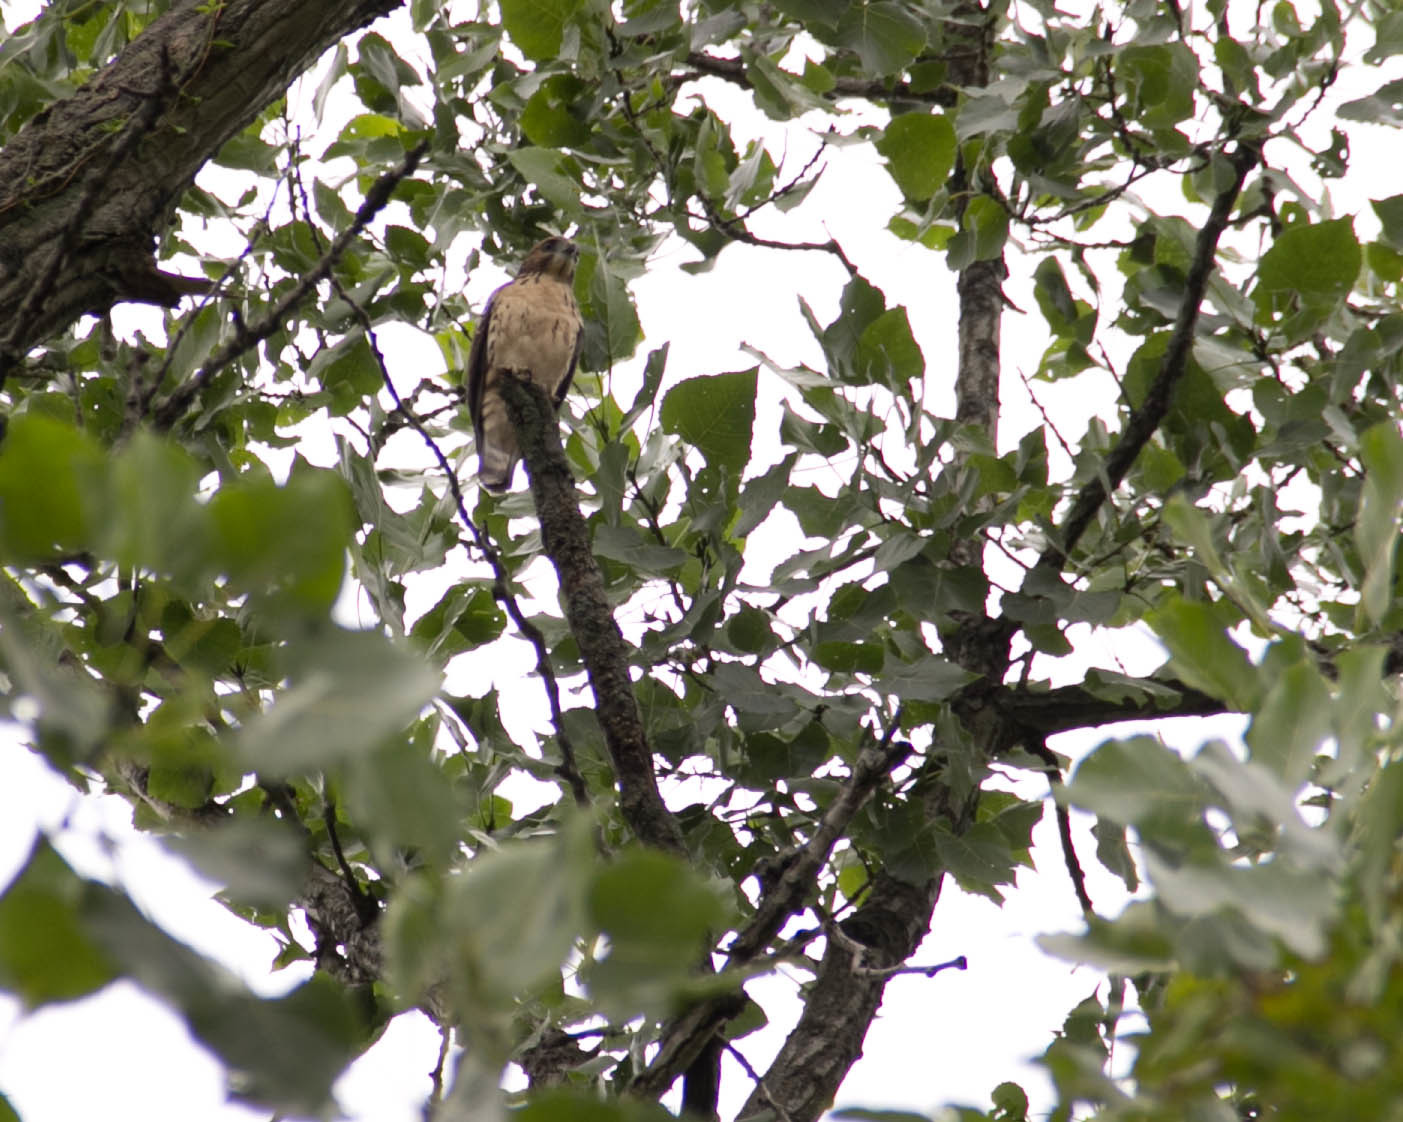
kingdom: Animalia
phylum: Chordata
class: Aves
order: Accipitriformes
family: Accipitridae
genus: Buteo
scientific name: Buteo platypterus
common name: Broad-winged hawk
